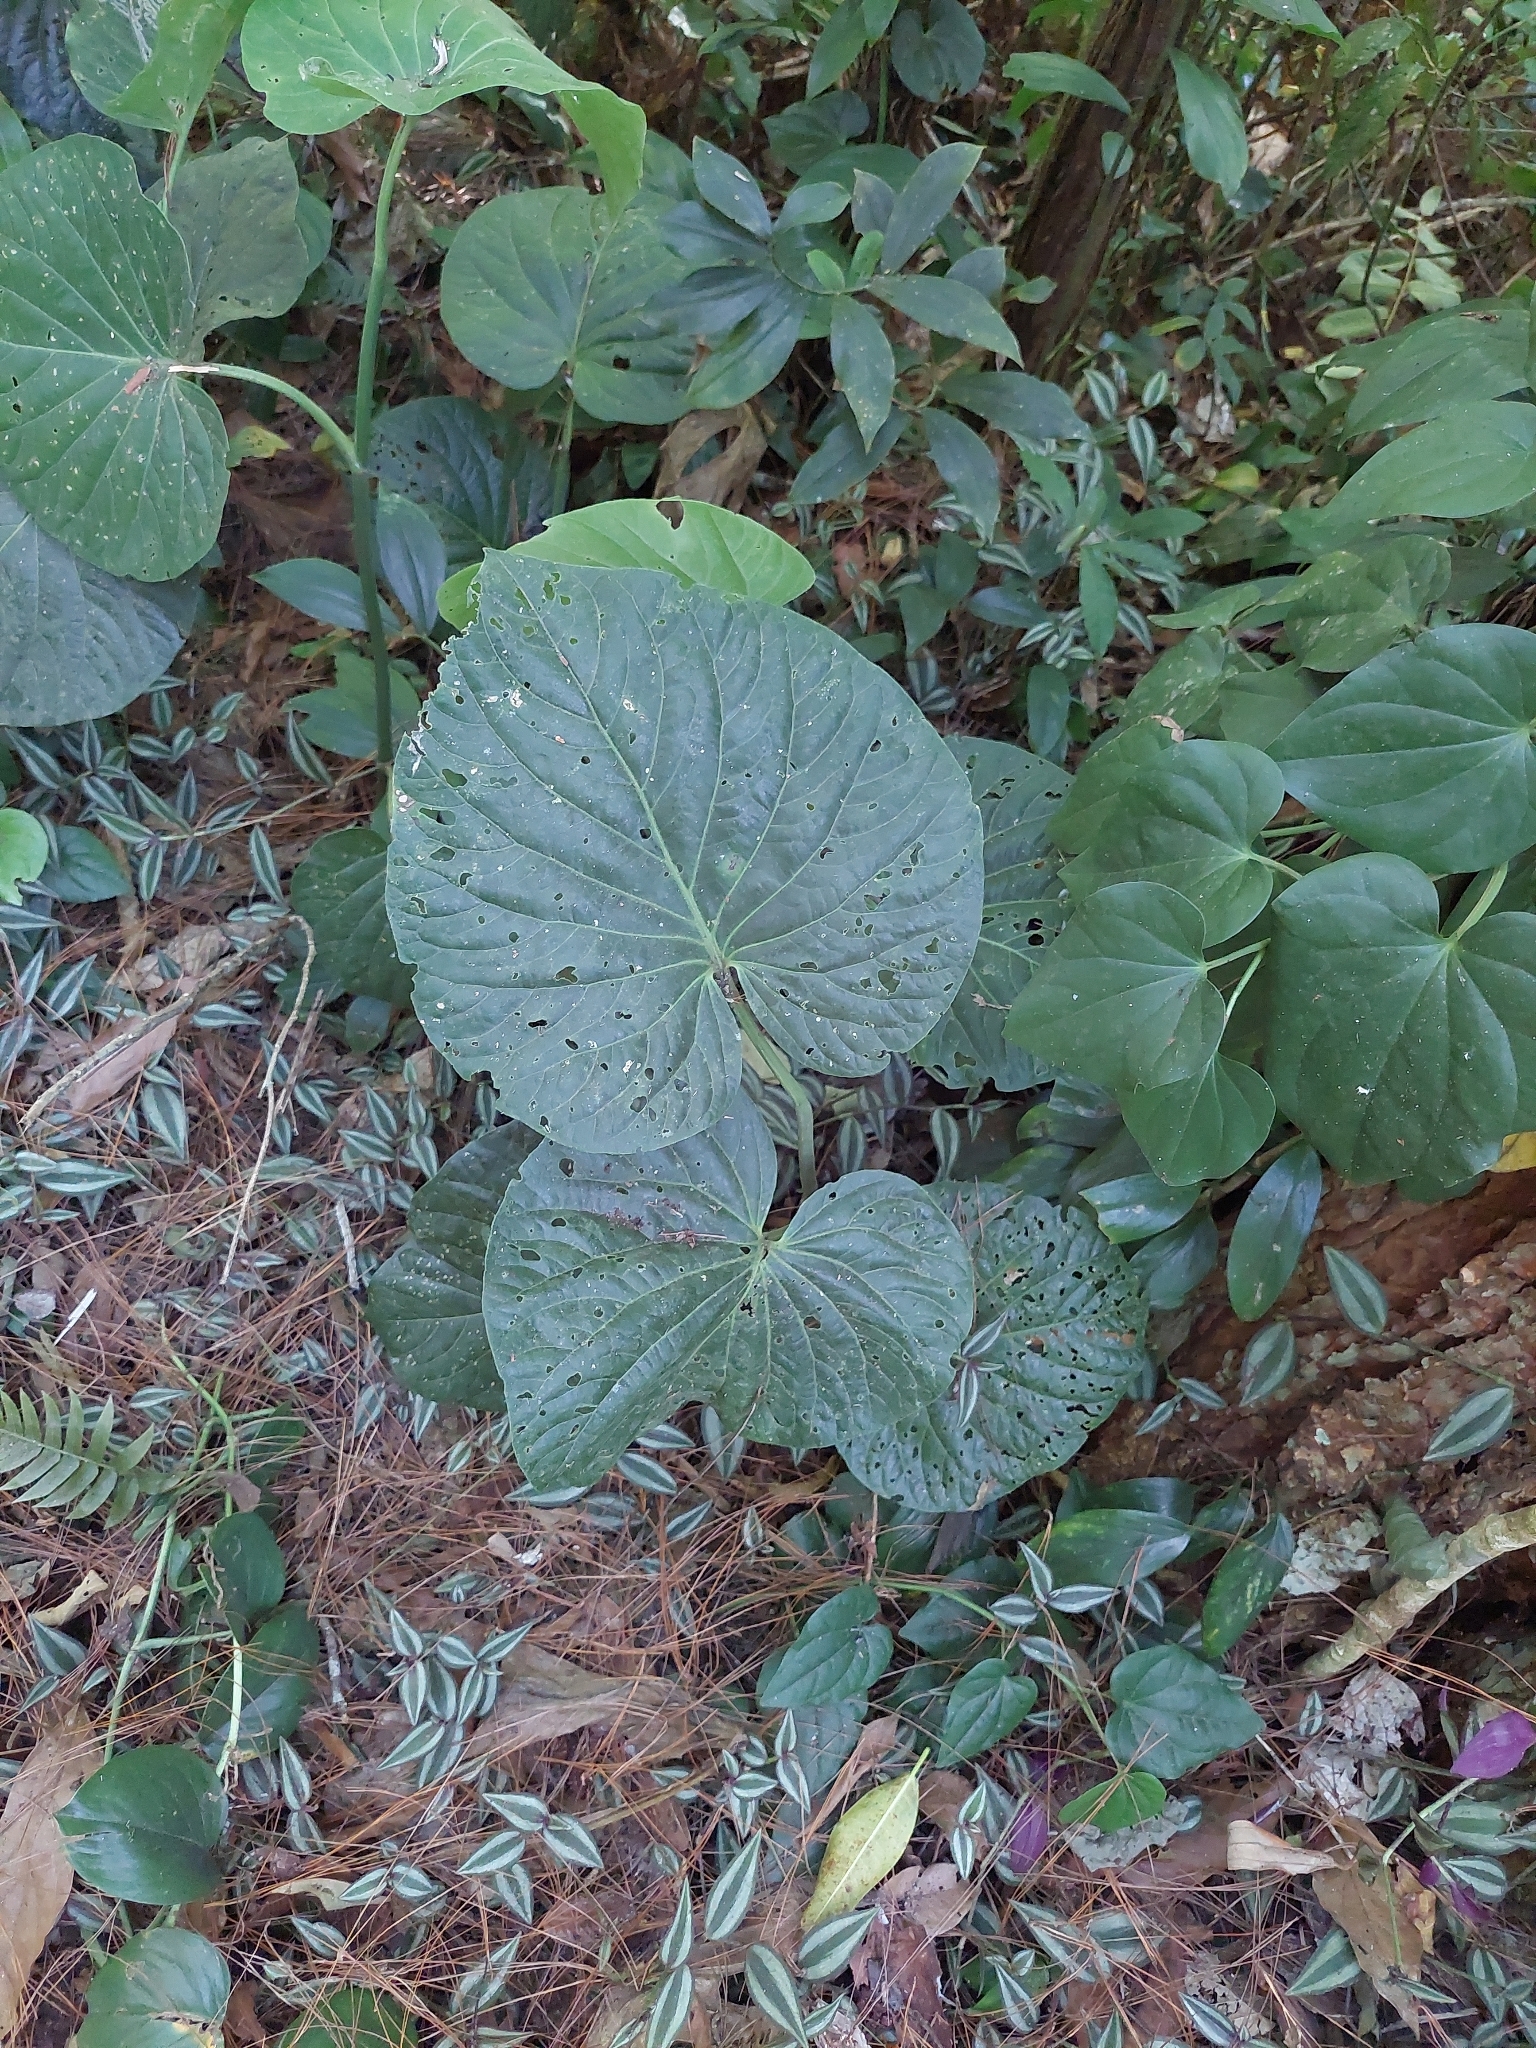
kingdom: Plantae
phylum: Tracheophyta
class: Magnoliopsida
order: Piperales
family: Piperaceae
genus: Piper
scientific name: Piper auritum
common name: Vera cruz pepper
